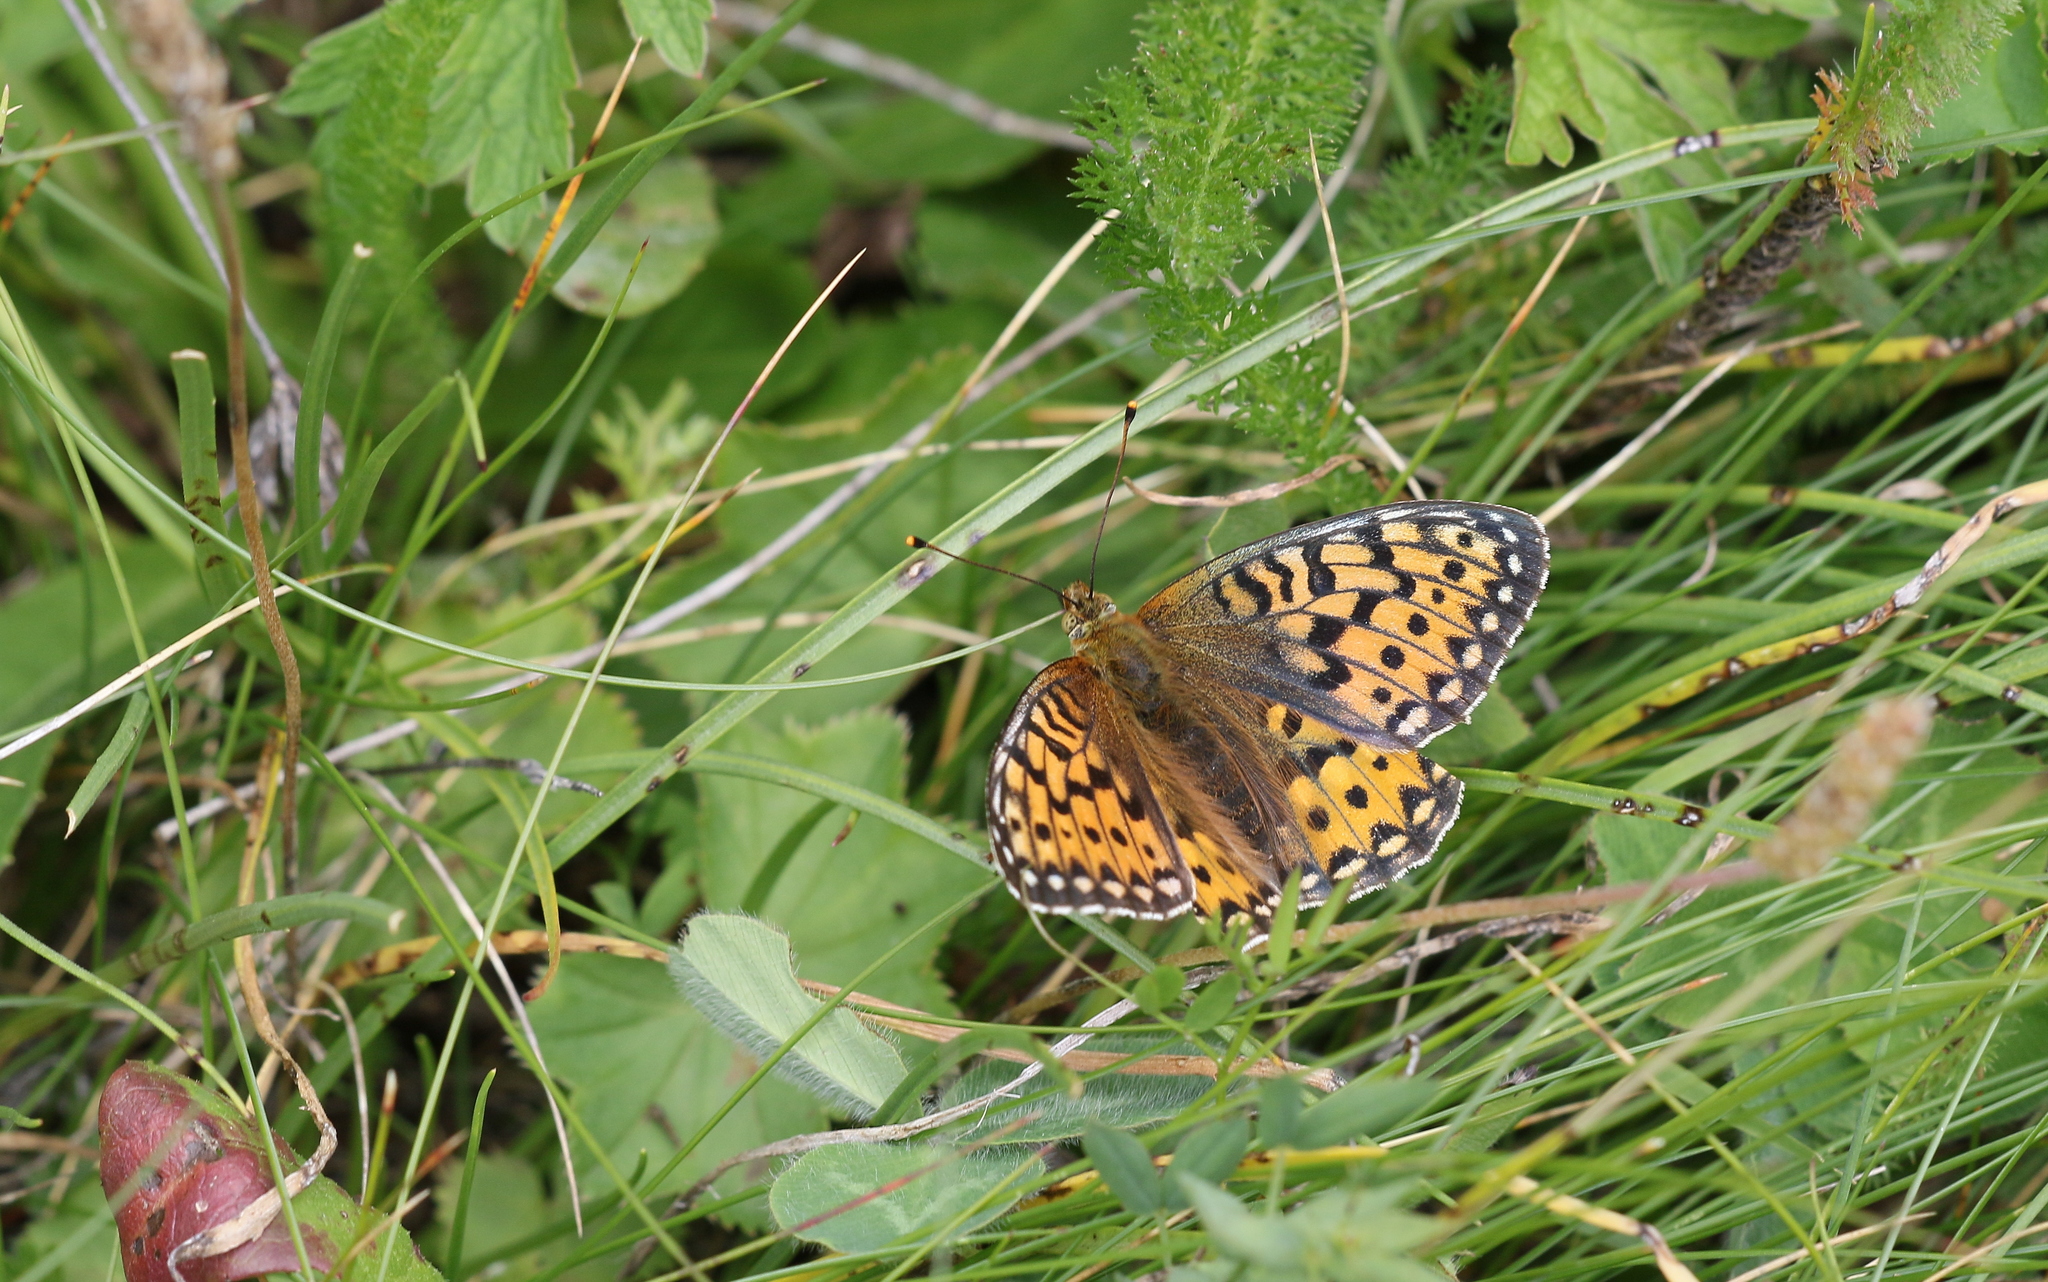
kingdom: Animalia
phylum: Arthropoda
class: Insecta
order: Lepidoptera
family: Nymphalidae
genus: Speyeria
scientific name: Speyeria aglaja
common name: Dark green fritillary
